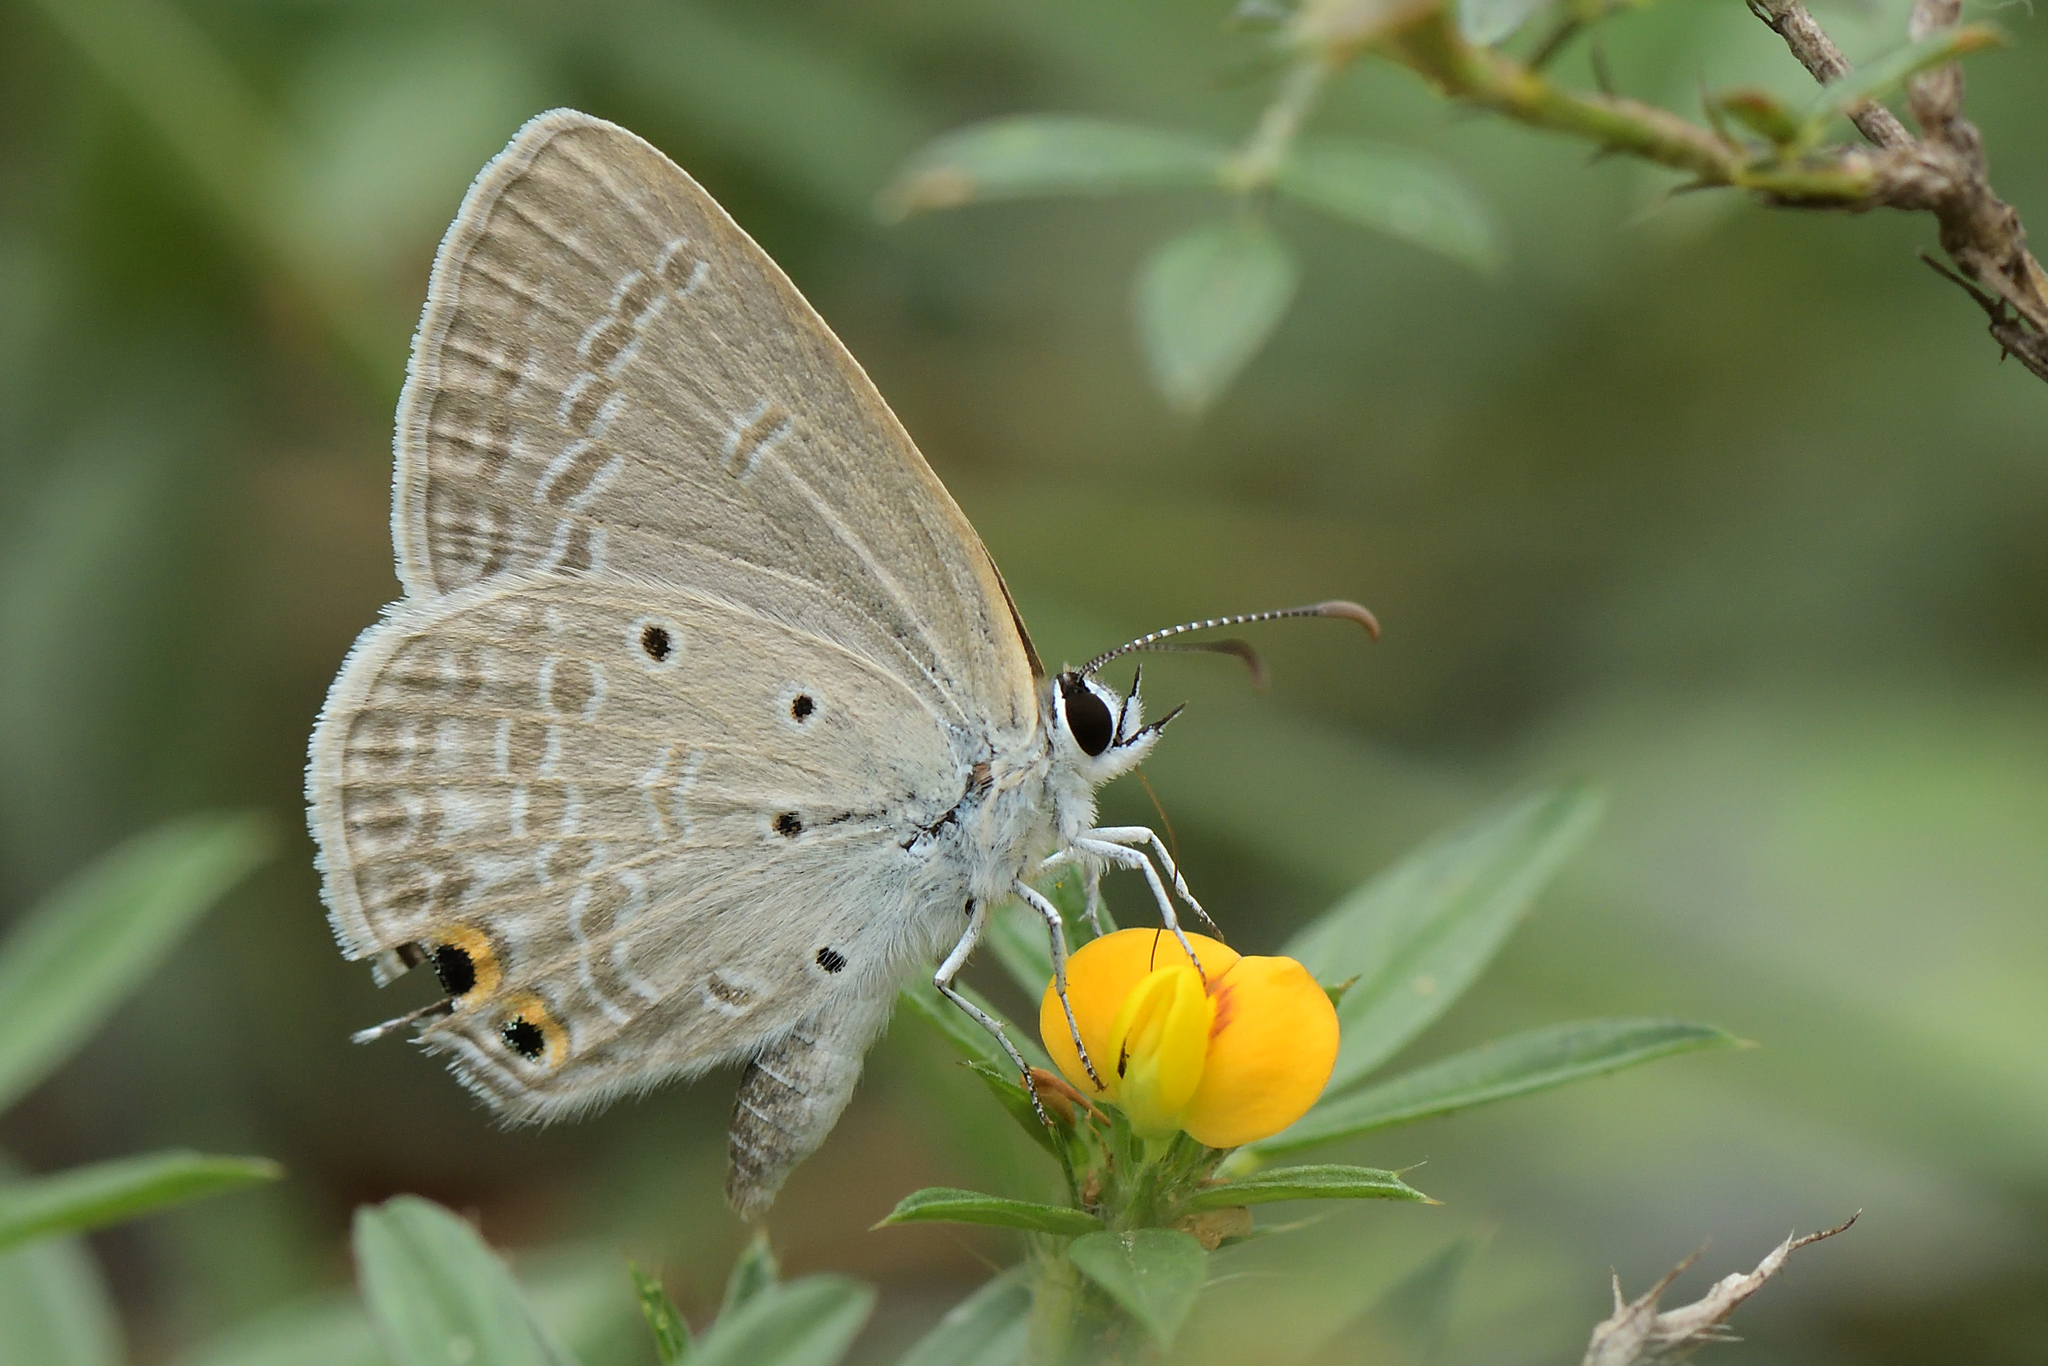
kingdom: Animalia
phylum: Arthropoda
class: Insecta
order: Lepidoptera
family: Lycaenidae
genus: Euchrysops
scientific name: Euchrysops cnejus
